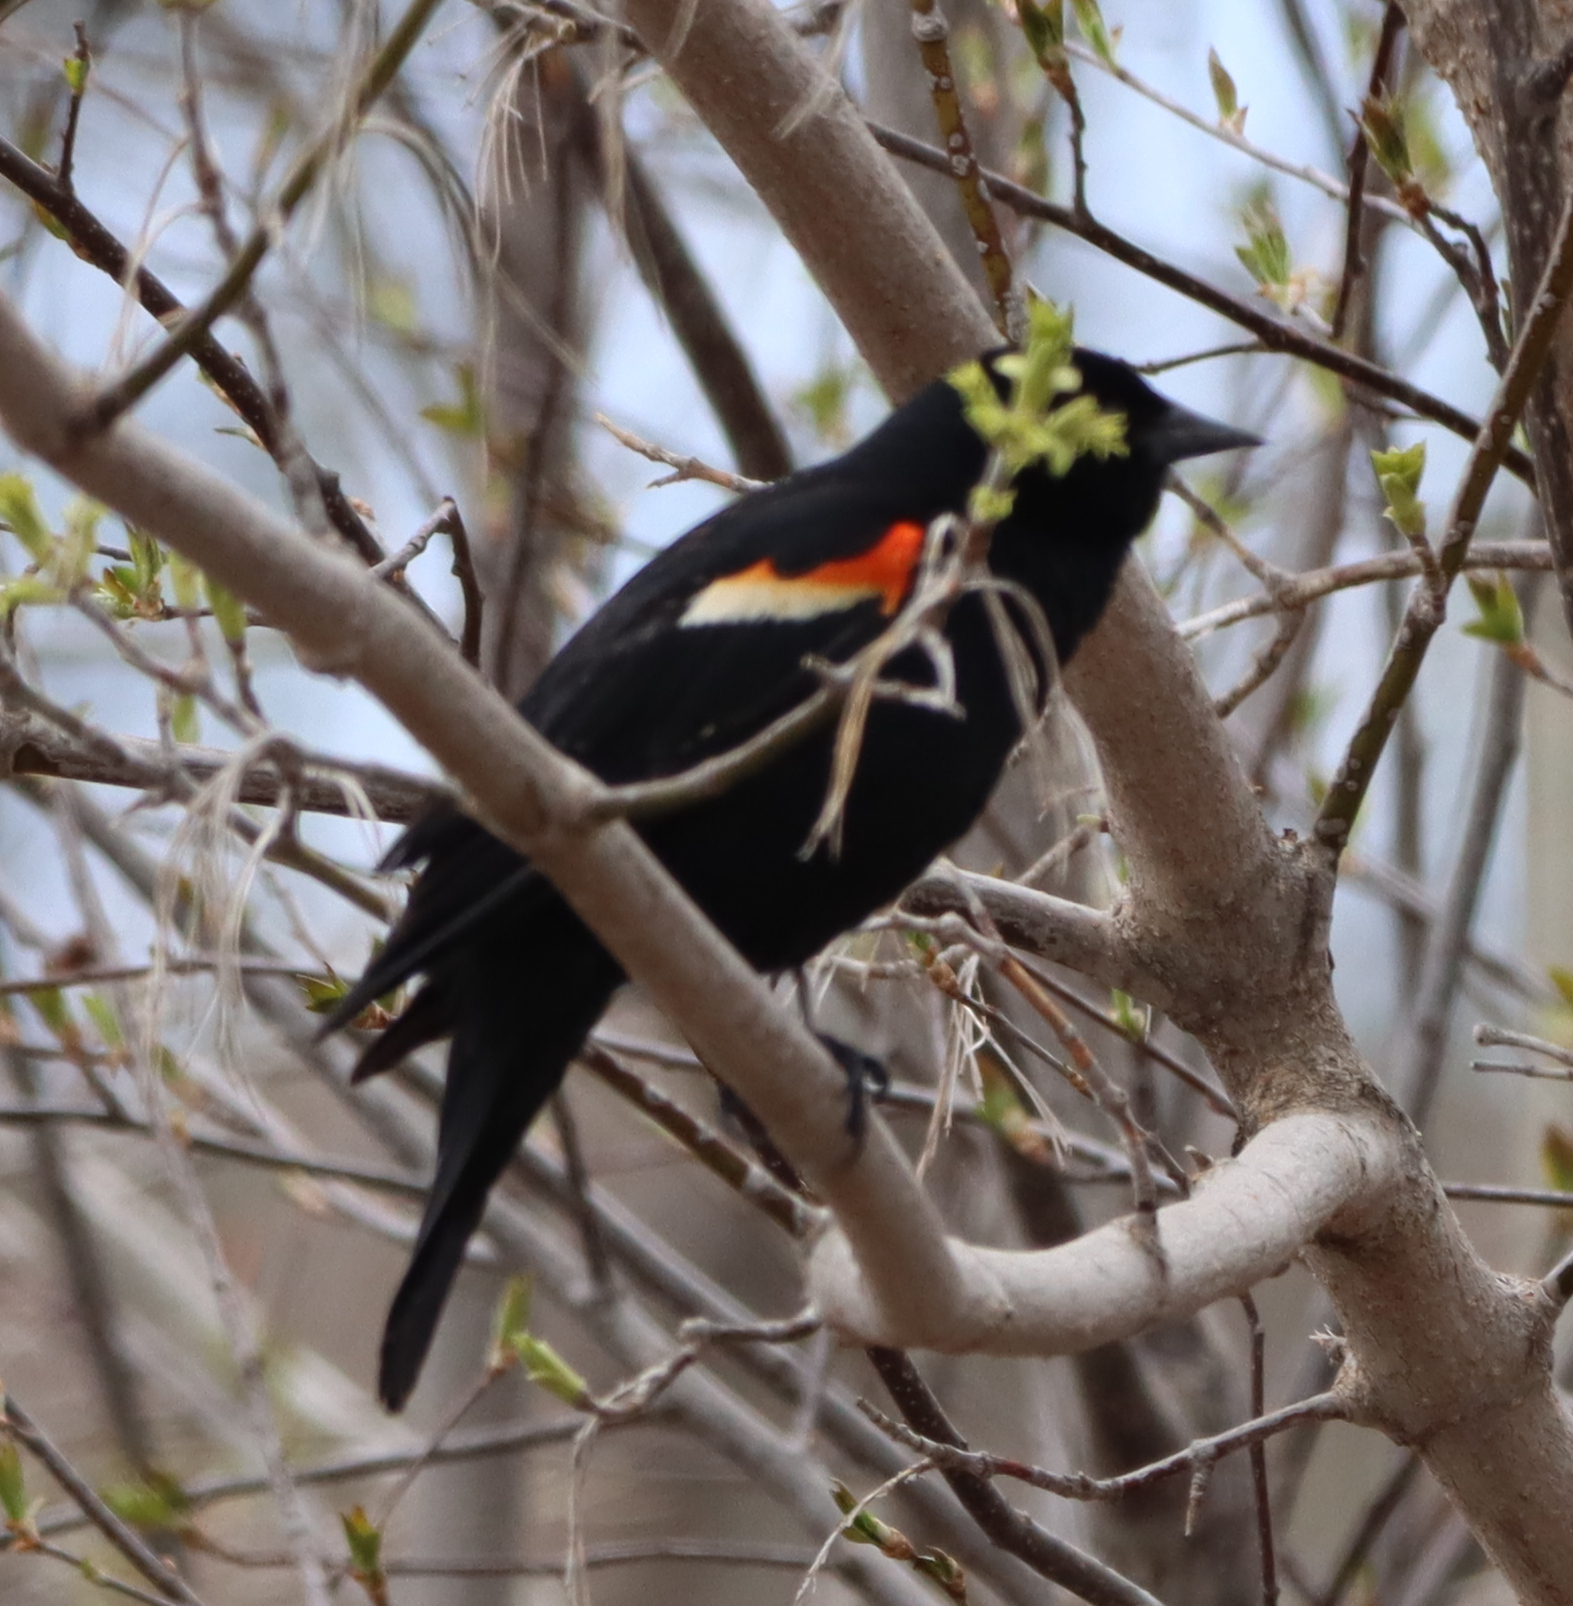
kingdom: Animalia
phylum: Chordata
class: Aves
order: Passeriformes
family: Icteridae
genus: Agelaius
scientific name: Agelaius phoeniceus
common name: Red-winged blackbird
